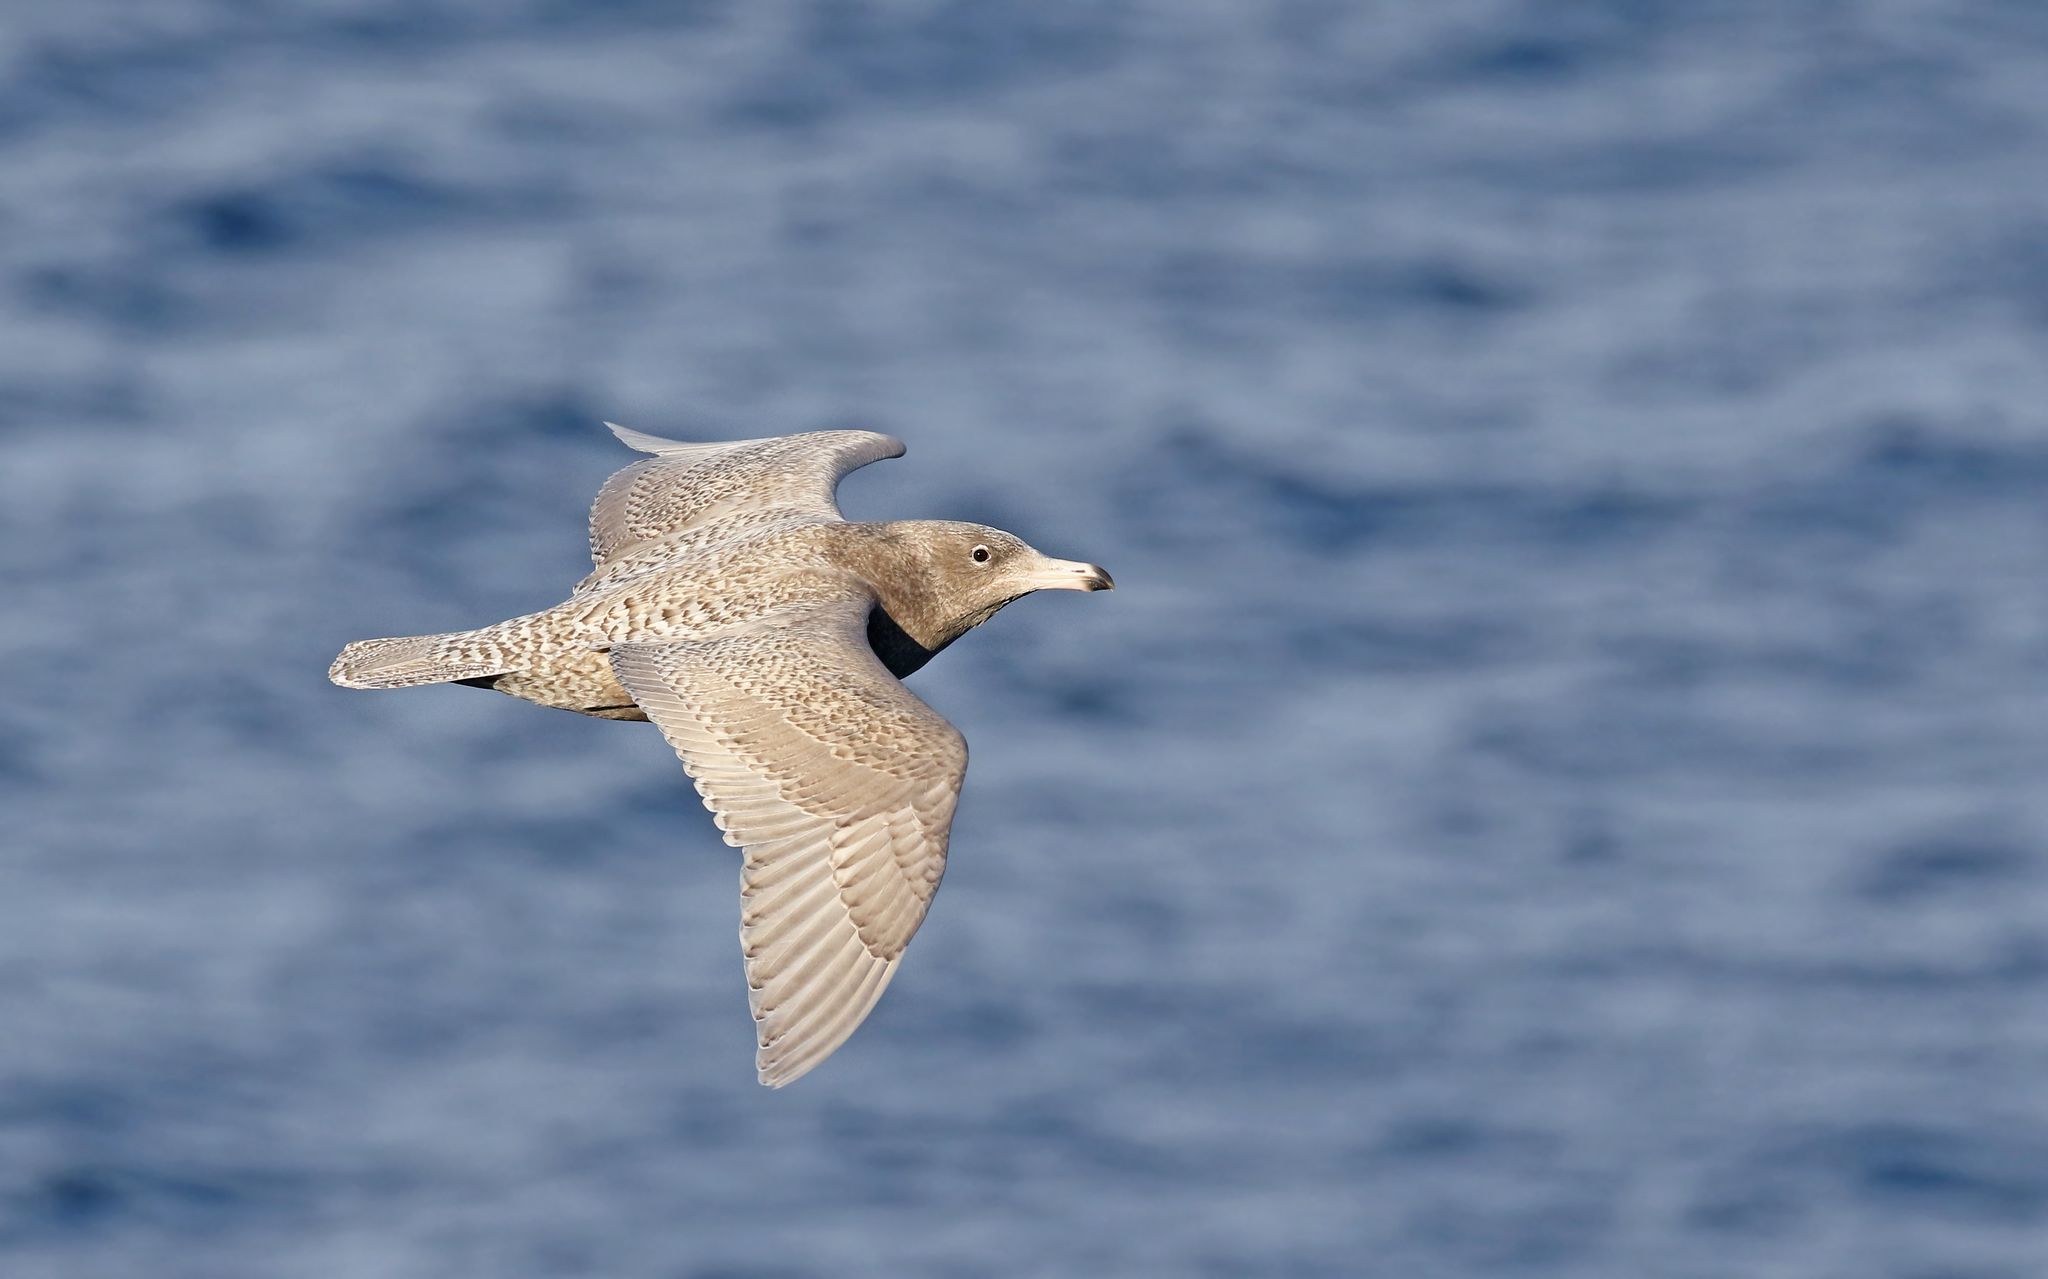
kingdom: Animalia
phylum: Chordata
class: Aves
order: Charadriiformes
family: Laridae
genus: Larus
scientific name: Larus hyperboreus
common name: Glaucous gull
